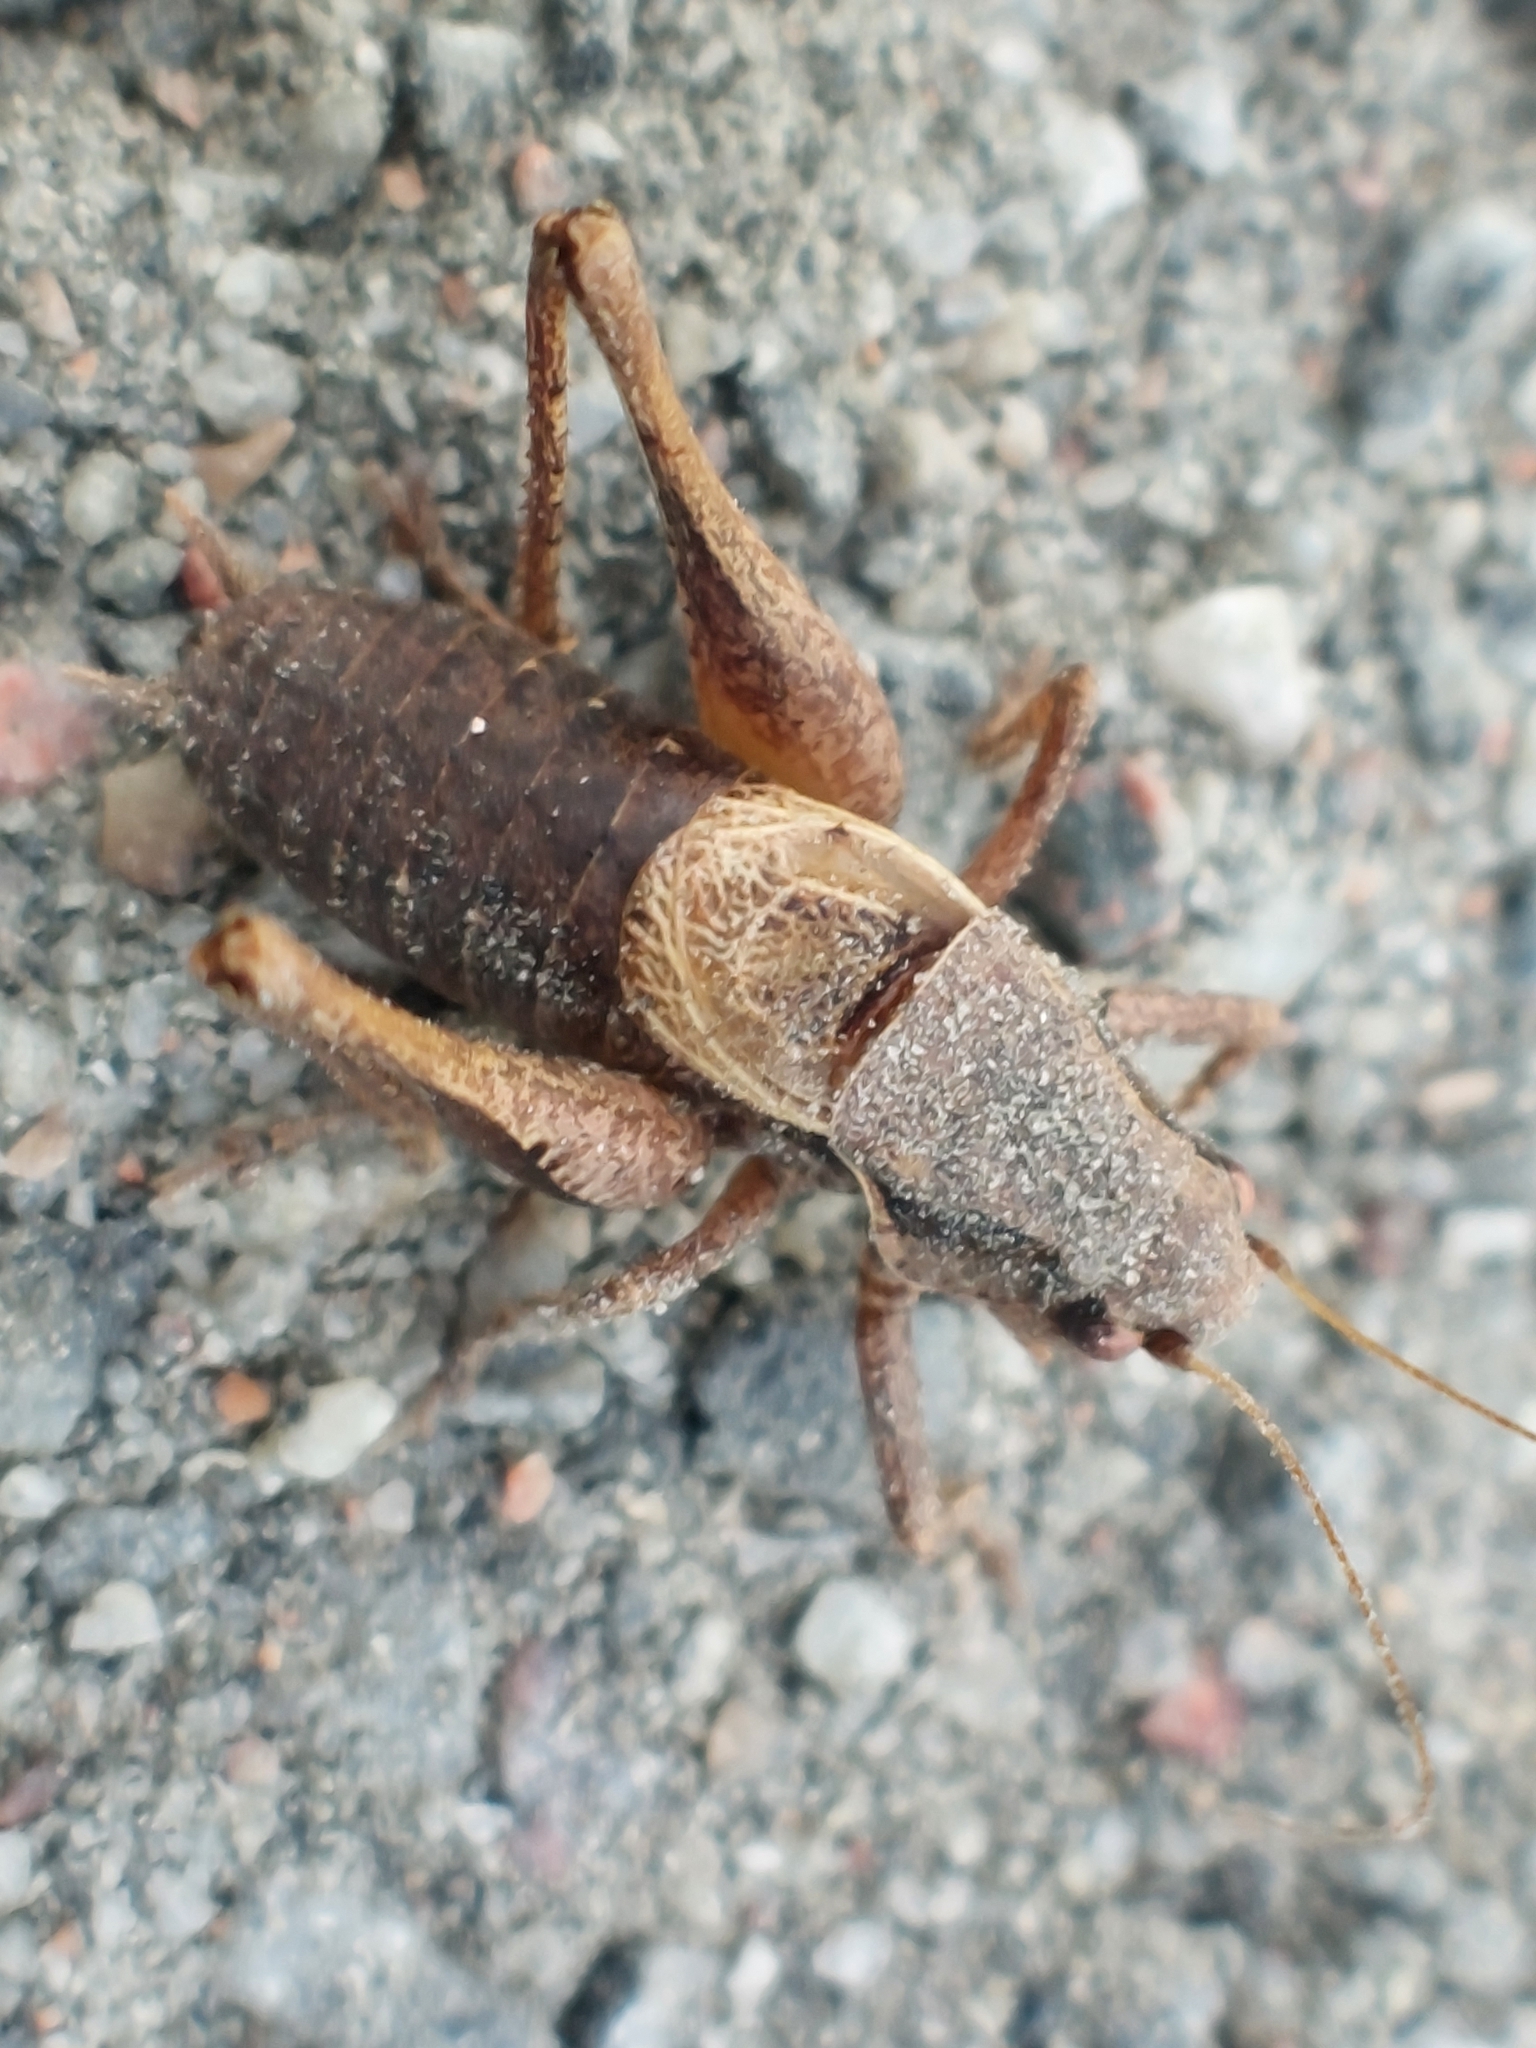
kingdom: Animalia
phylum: Arthropoda
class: Insecta
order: Orthoptera
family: Tettigoniidae
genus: Pholidoptera
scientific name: Pholidoptera griseoaptera
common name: Dark bush-cricket
